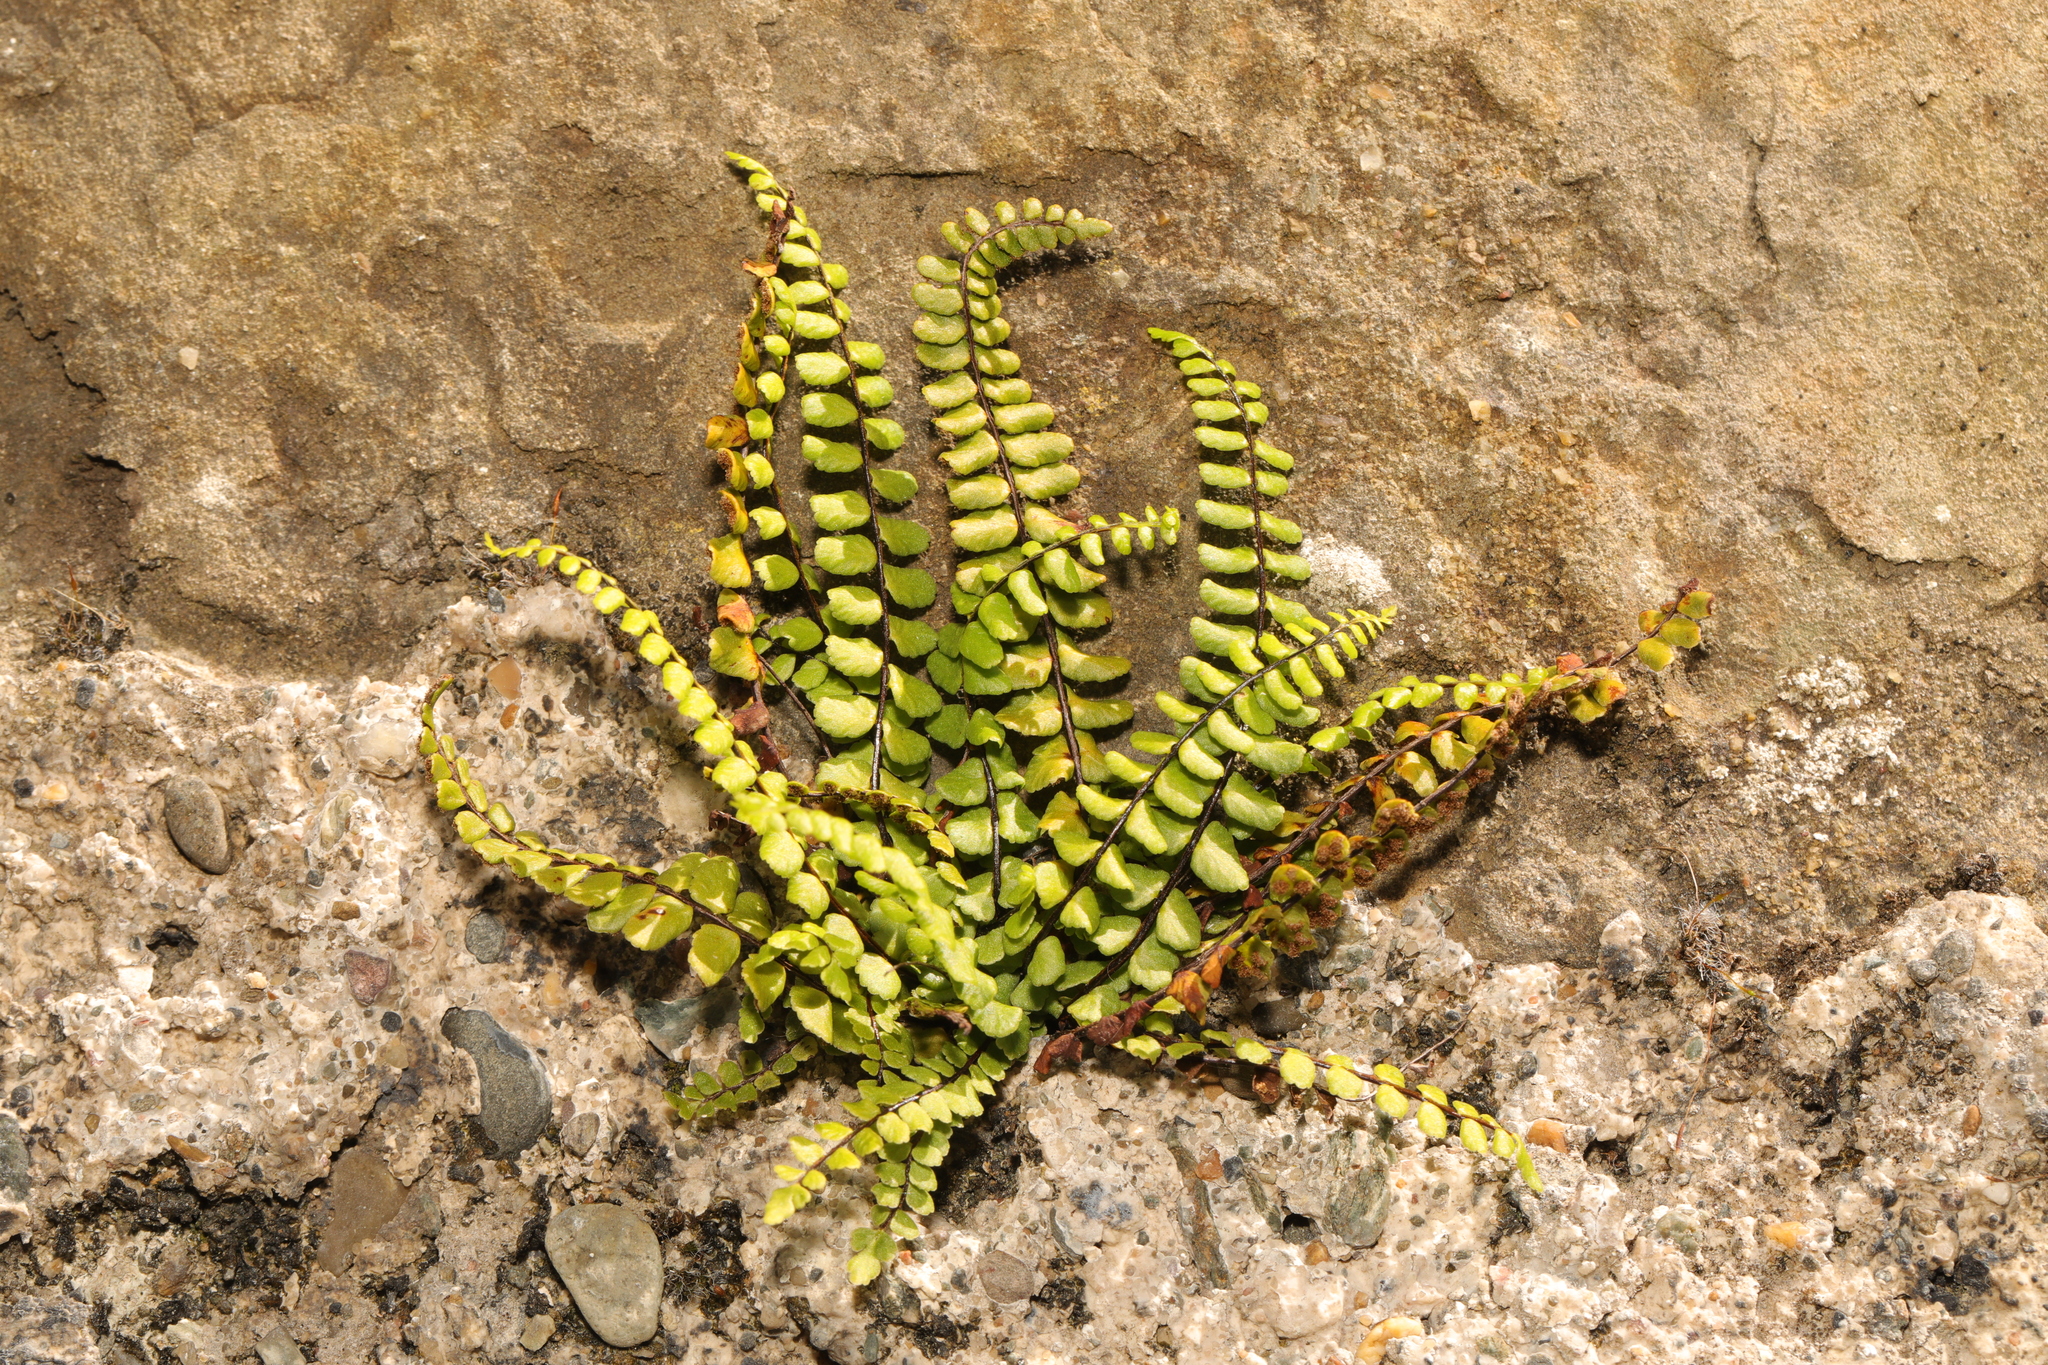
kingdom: Plantae
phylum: Tracheophyta
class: Polypodiopsida
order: Polypodiales
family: Aspleniaceae
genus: Asplenium
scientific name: Asplenium trichomanes
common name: Maidenhair spleenwort
